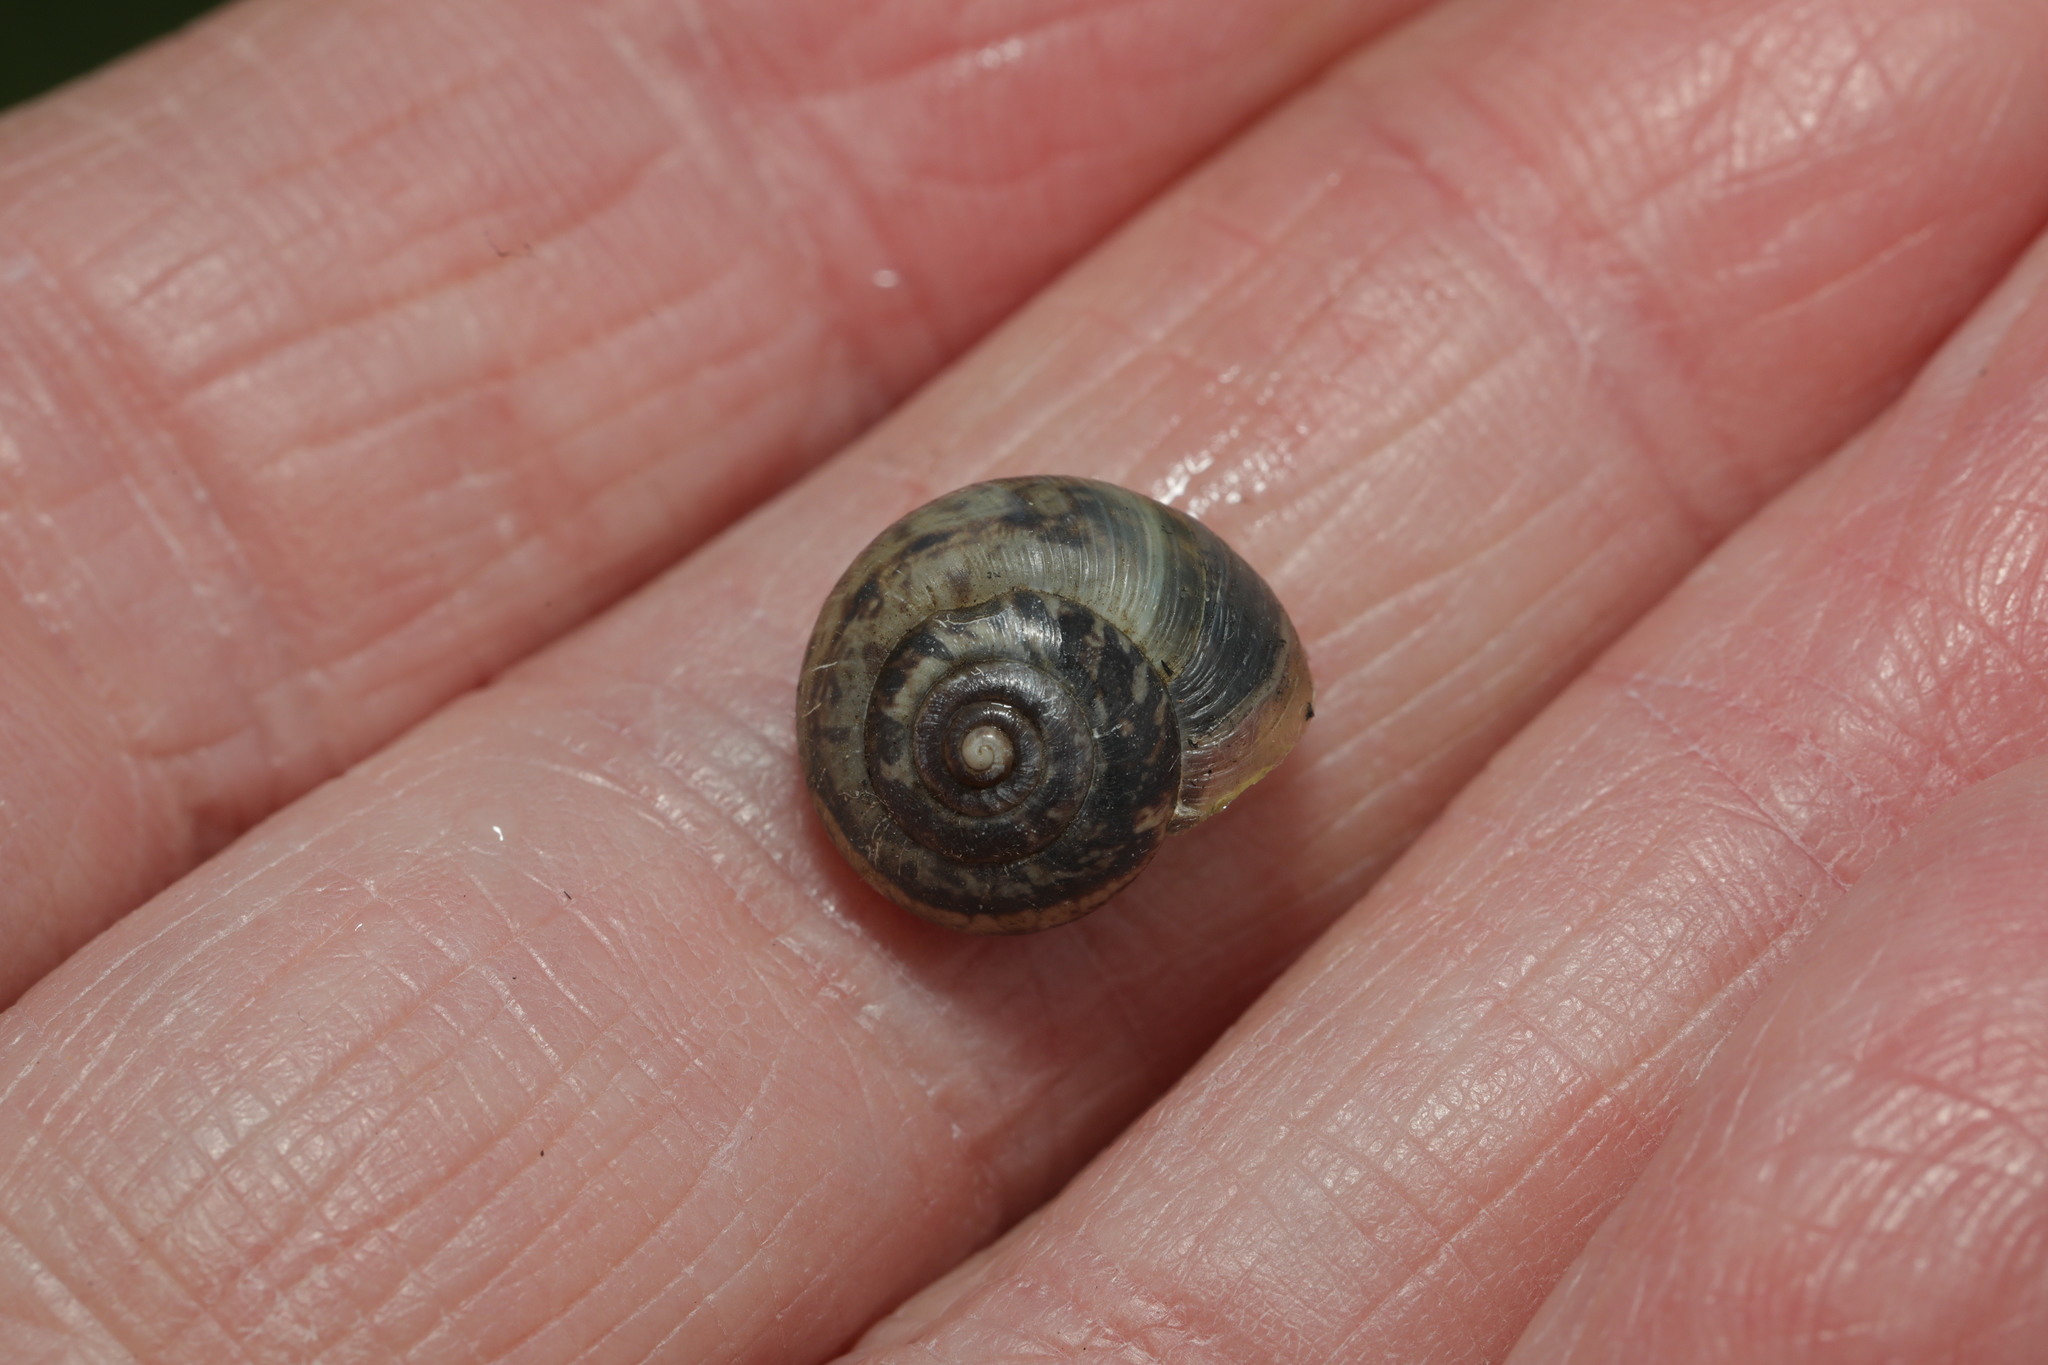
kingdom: Animalia
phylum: Mollusca
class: Gastropoda
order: Stylommatophora
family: Hygromiidae
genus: Monacha
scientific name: Monacha cantiana
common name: Kentish snail
